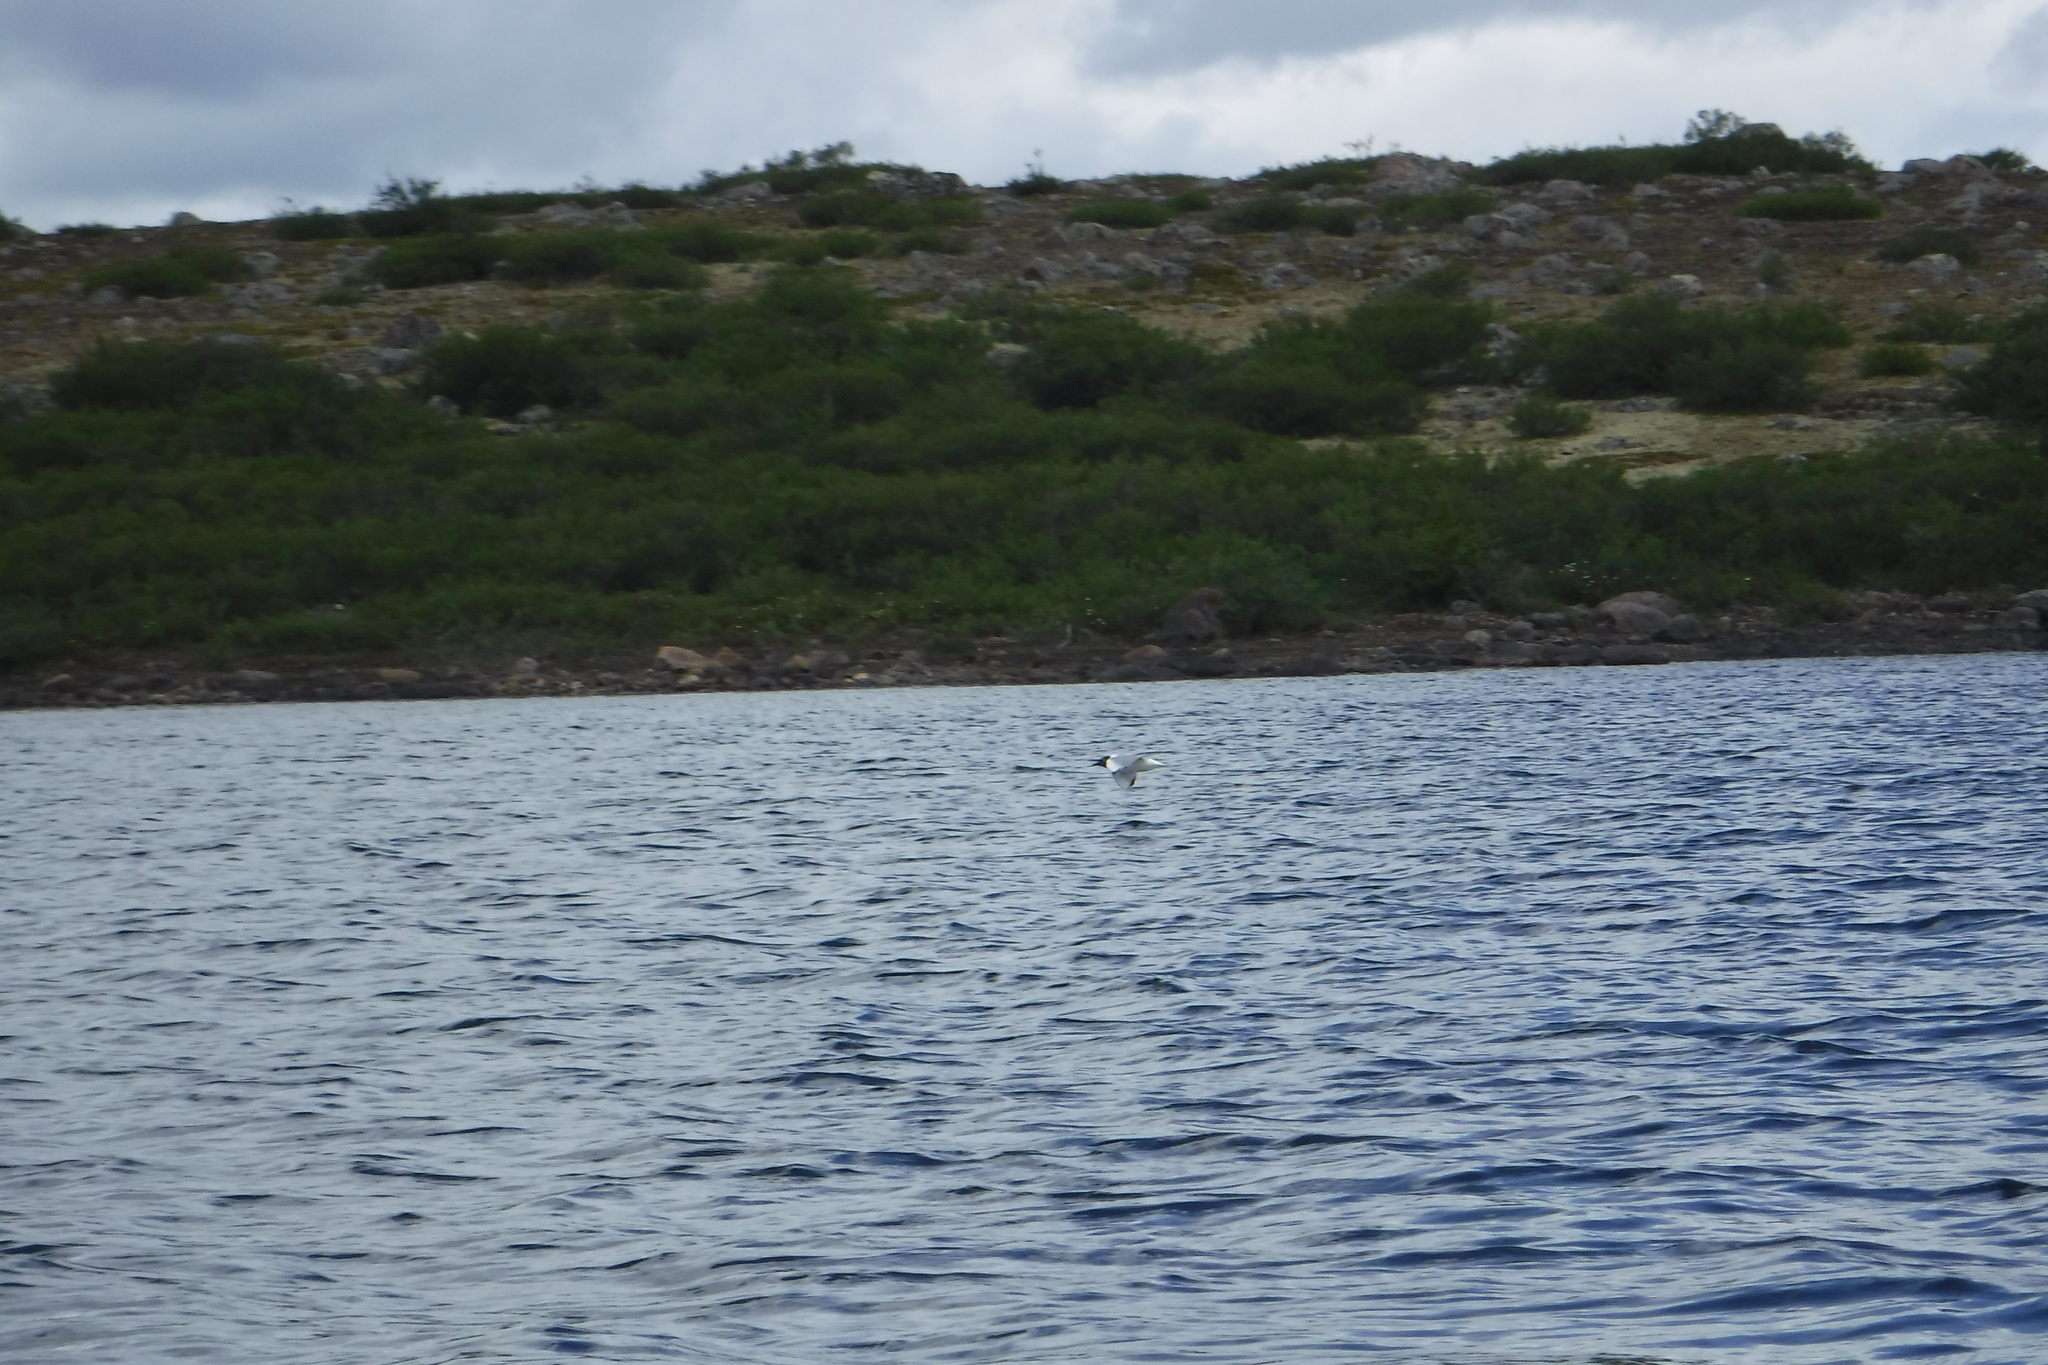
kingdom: Animalia
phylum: Chordata
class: Aves
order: Charadriiformes
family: Laridae
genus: Chroicocephalus
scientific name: Chroicocephalus philadelphia
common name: Bonaparte's gull
